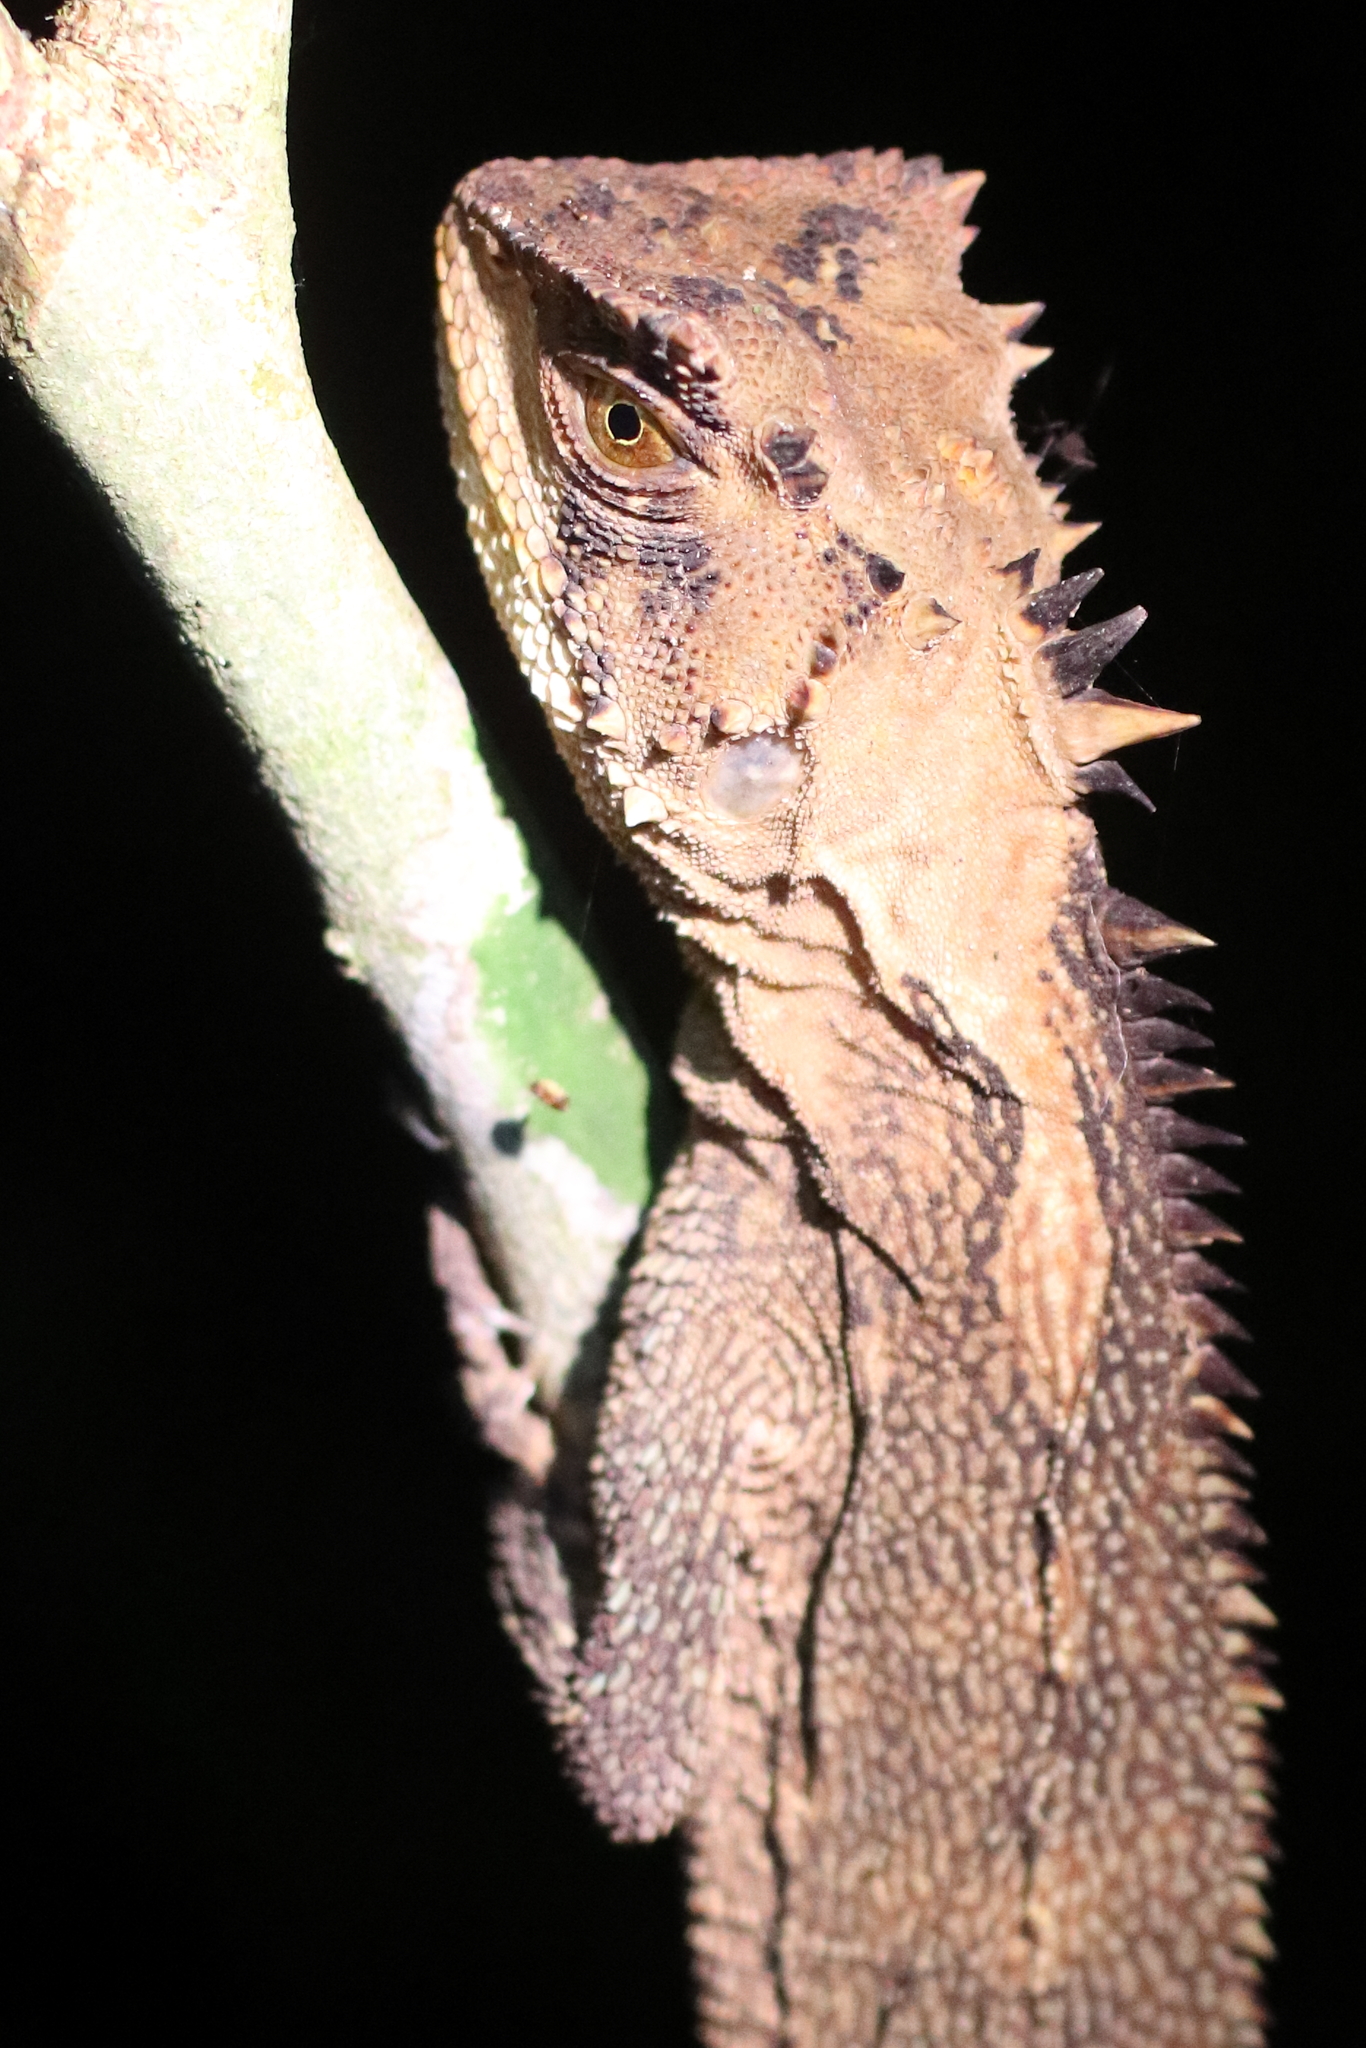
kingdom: Animalia
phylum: Chordata
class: Squamata
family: Hoplocercidae
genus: Enyalioides
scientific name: Enyalioides palpebralis
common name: Boulenger's dwarf iguana
